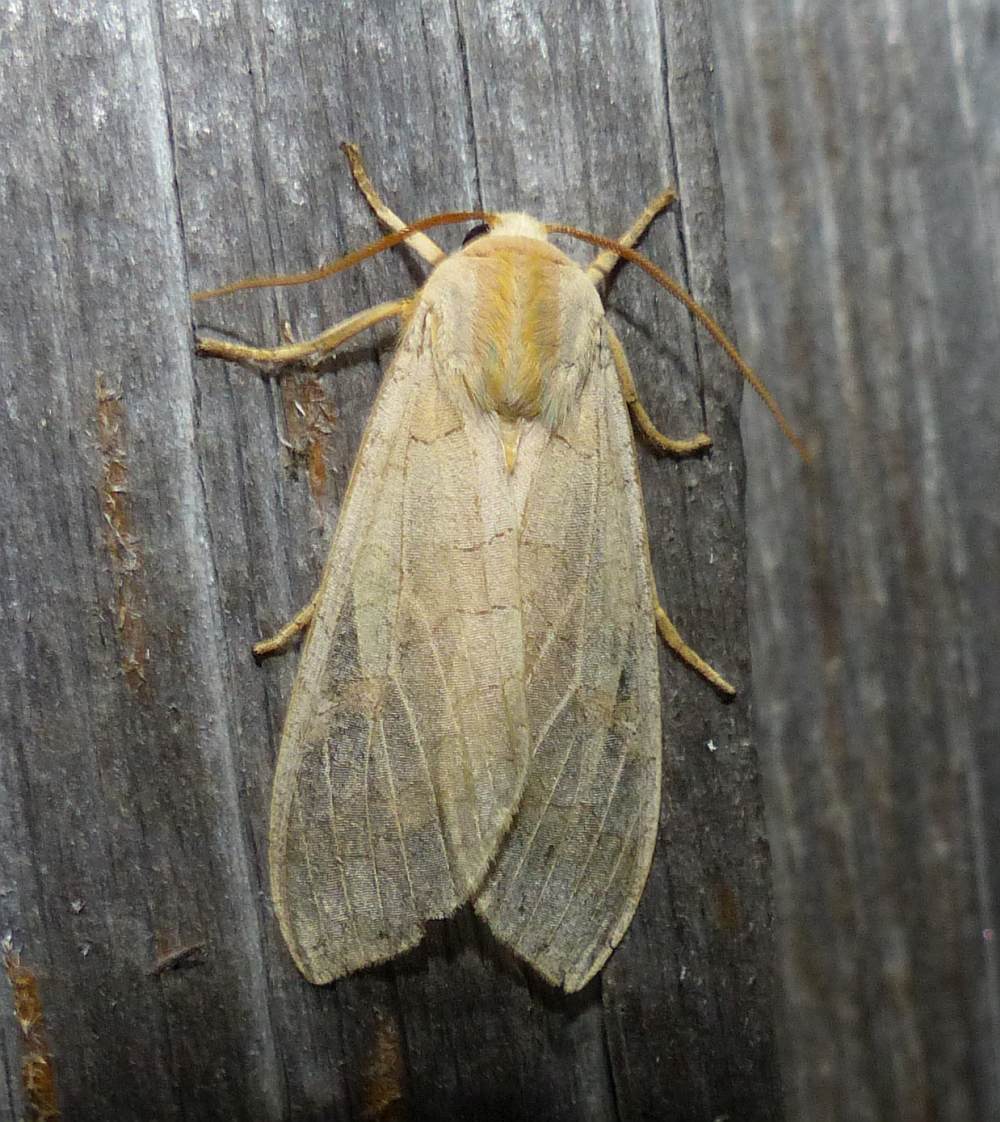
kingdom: Animalia
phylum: Arthropoda
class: Insecta
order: Lepidoptera
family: Erebidae
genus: Halysidota
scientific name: Halysidota tessellaris
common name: Banded tussock moth
